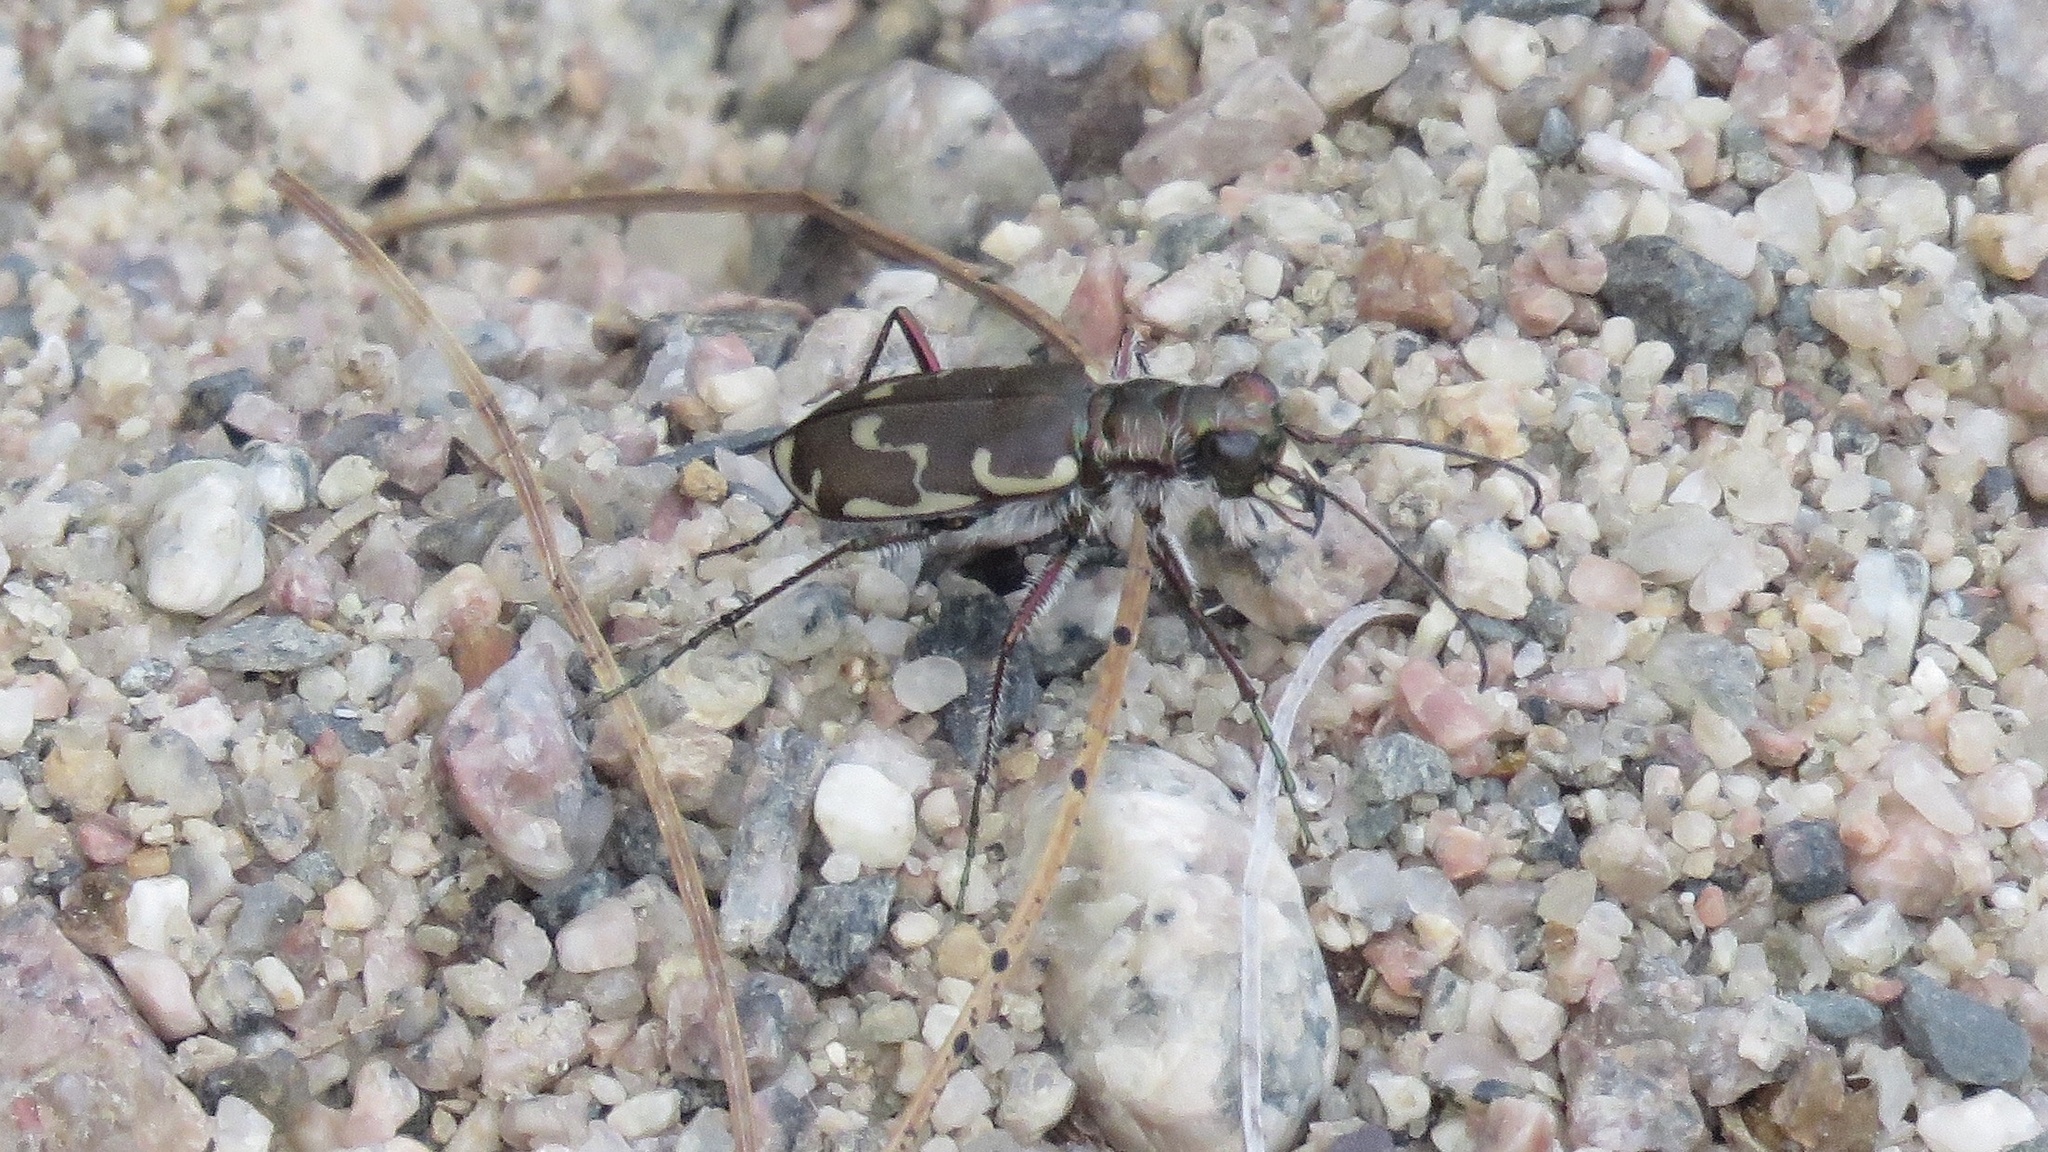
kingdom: Animalia
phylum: Arthropoda
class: Insecta
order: Coleoptera
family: Carabidae
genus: Cicindela
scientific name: Cicindela repanda
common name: Bronzed tiger beetle
